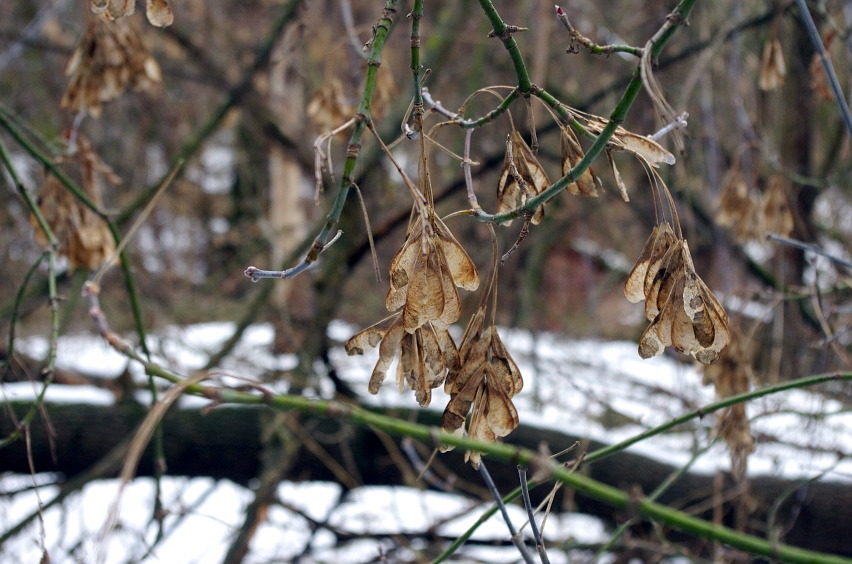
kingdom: Plantae
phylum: Tracheophyta
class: Magnoliopsida
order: Sapindales
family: Sapindaceae
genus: Acer
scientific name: Acer negundo
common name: Ashleaf maple
